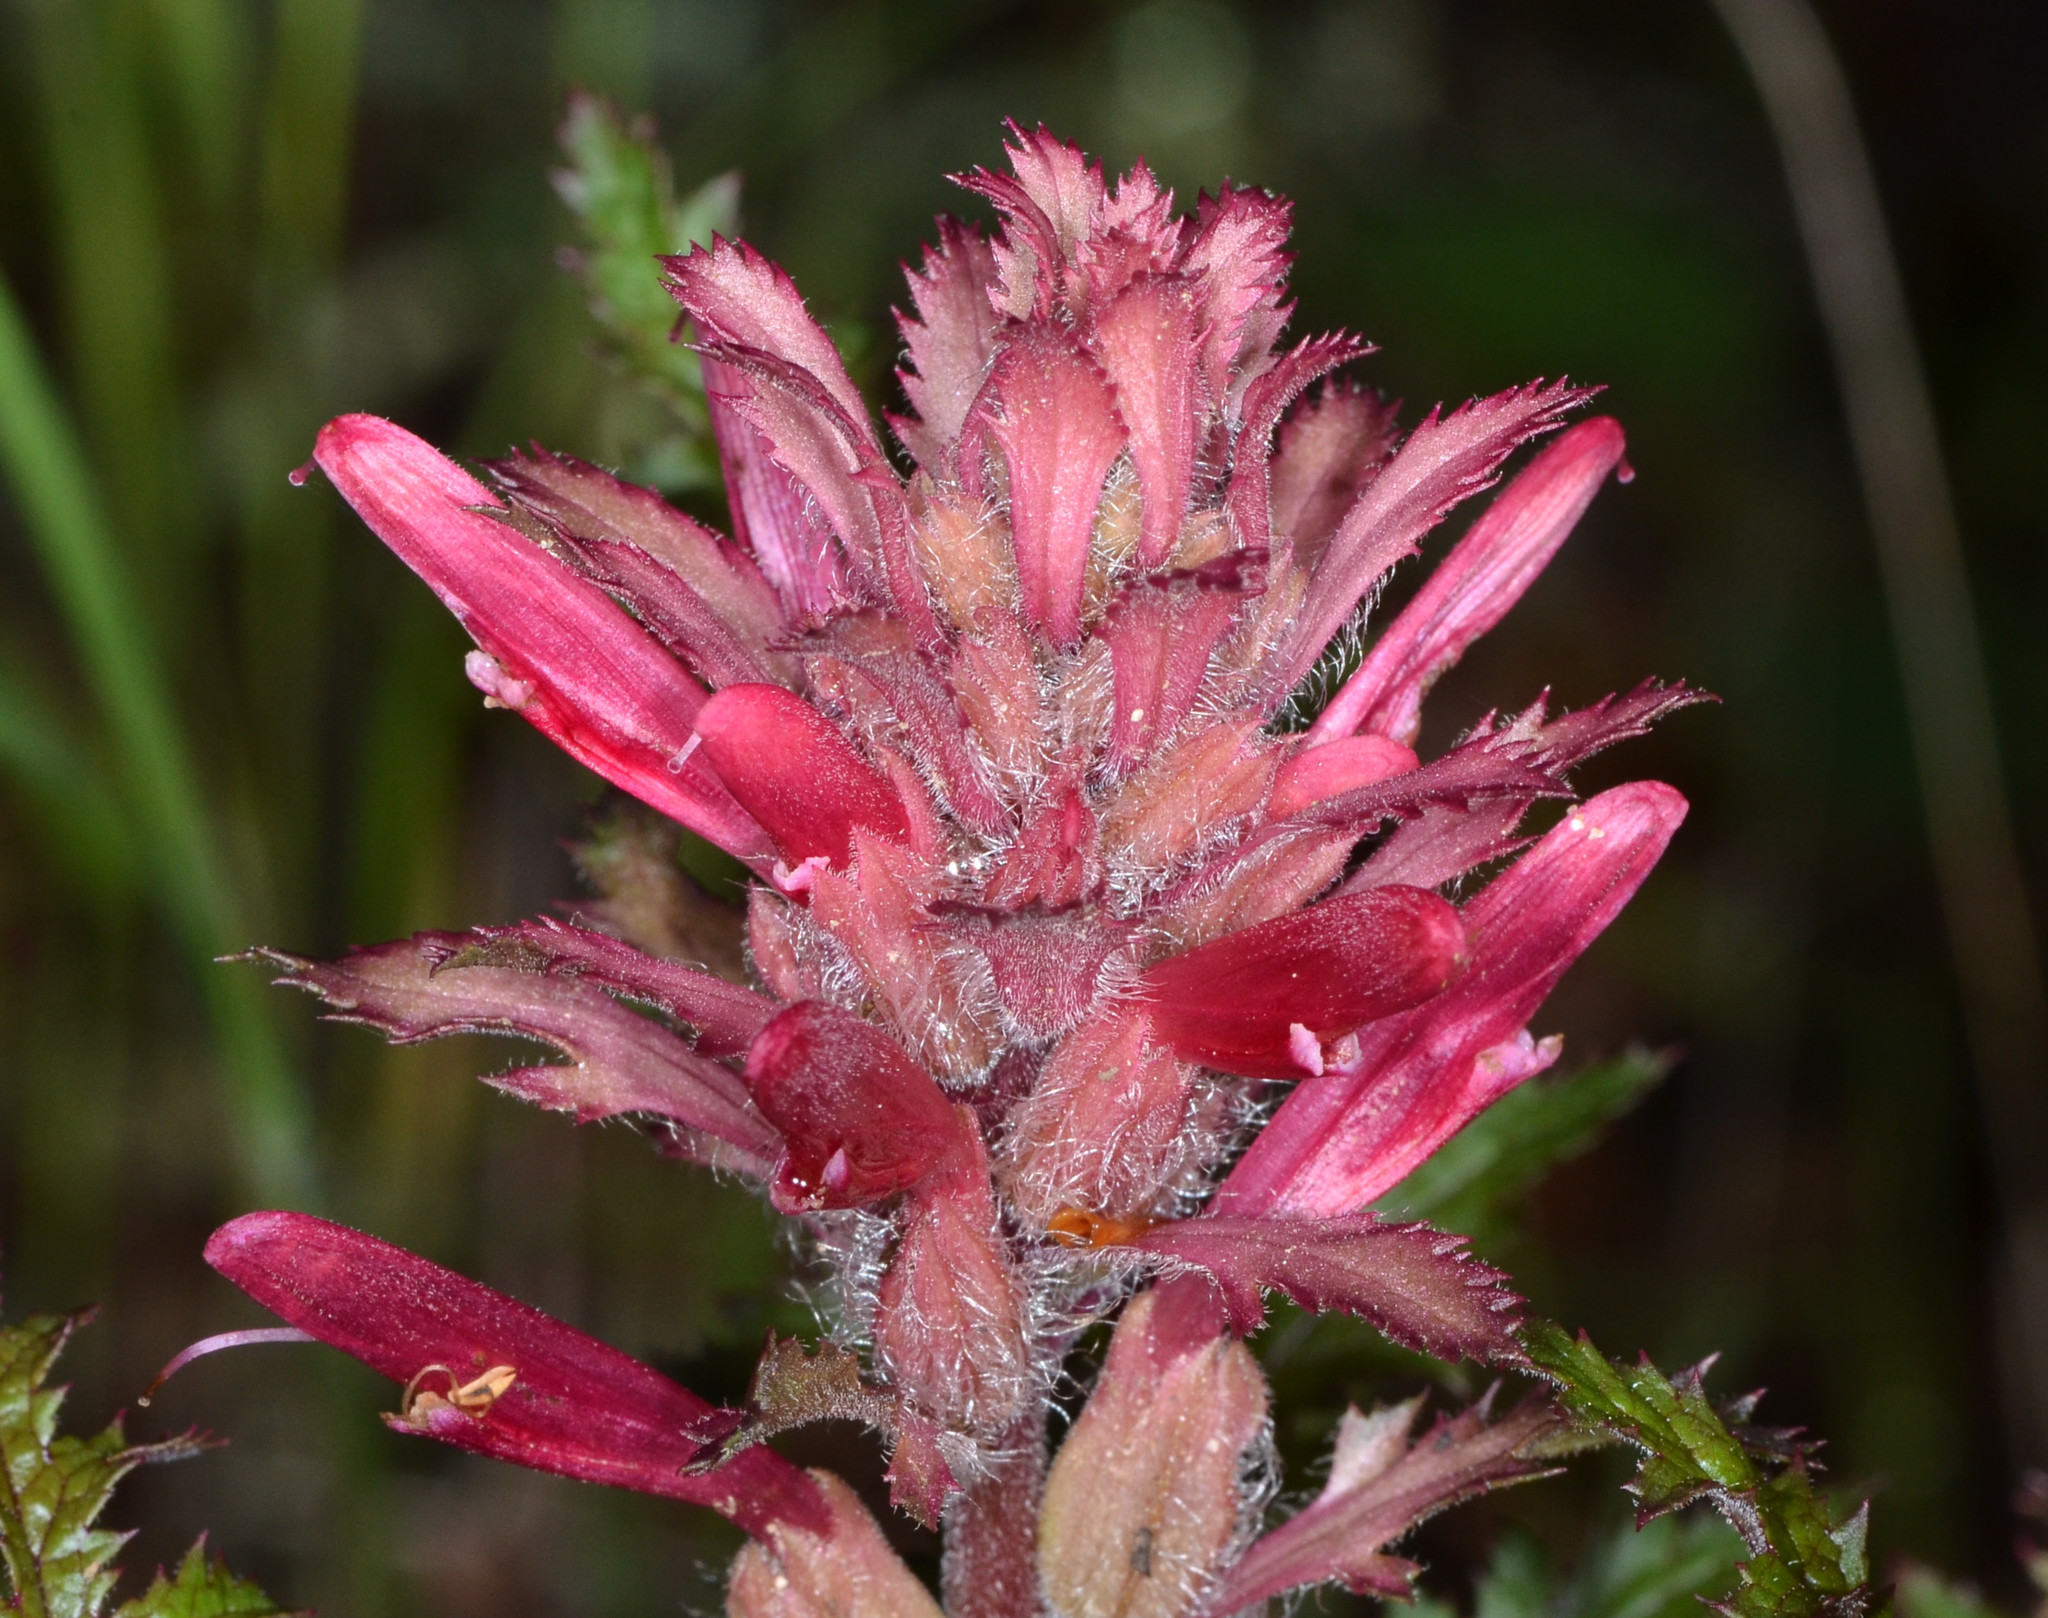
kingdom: Plantae
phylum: Tracheophyta
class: Magnoliopsida
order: Lamiales
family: Orobanchaceae
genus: Pedicularis
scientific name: Pedicularis densiflora
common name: Indian warrior
